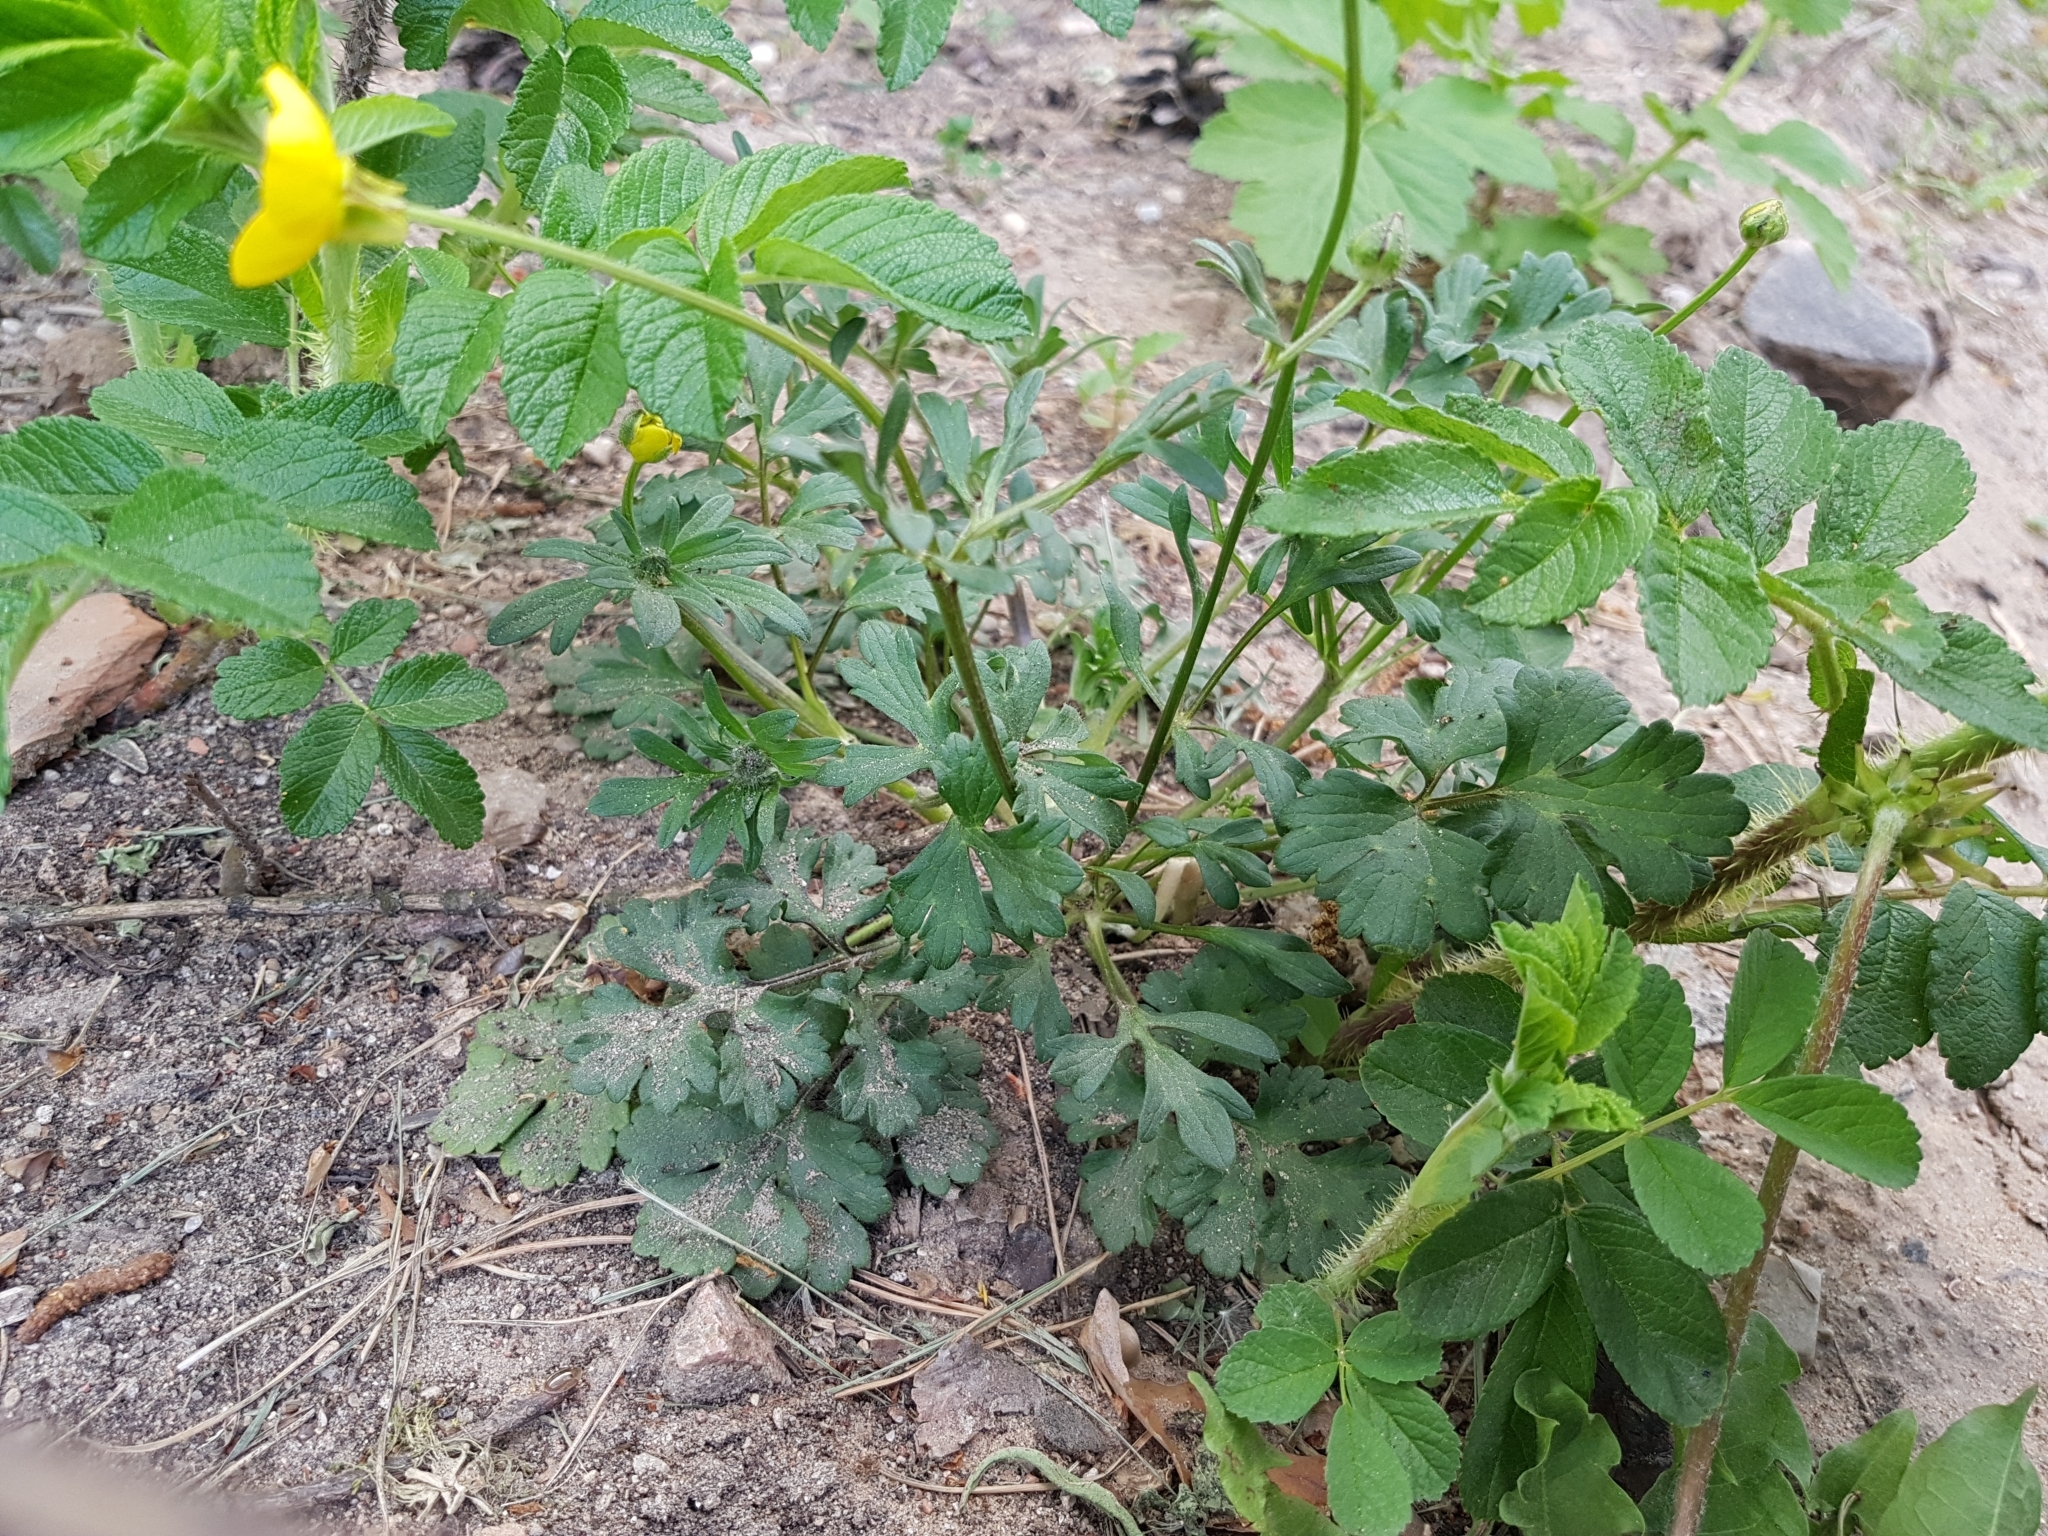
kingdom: Plantae
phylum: Tracheophyta
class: Magnoliopsida
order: Ranunculales
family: Ranunculaceae
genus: Ranunculus
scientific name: Ranunculus bulbosus
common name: Bulbous buttercup
